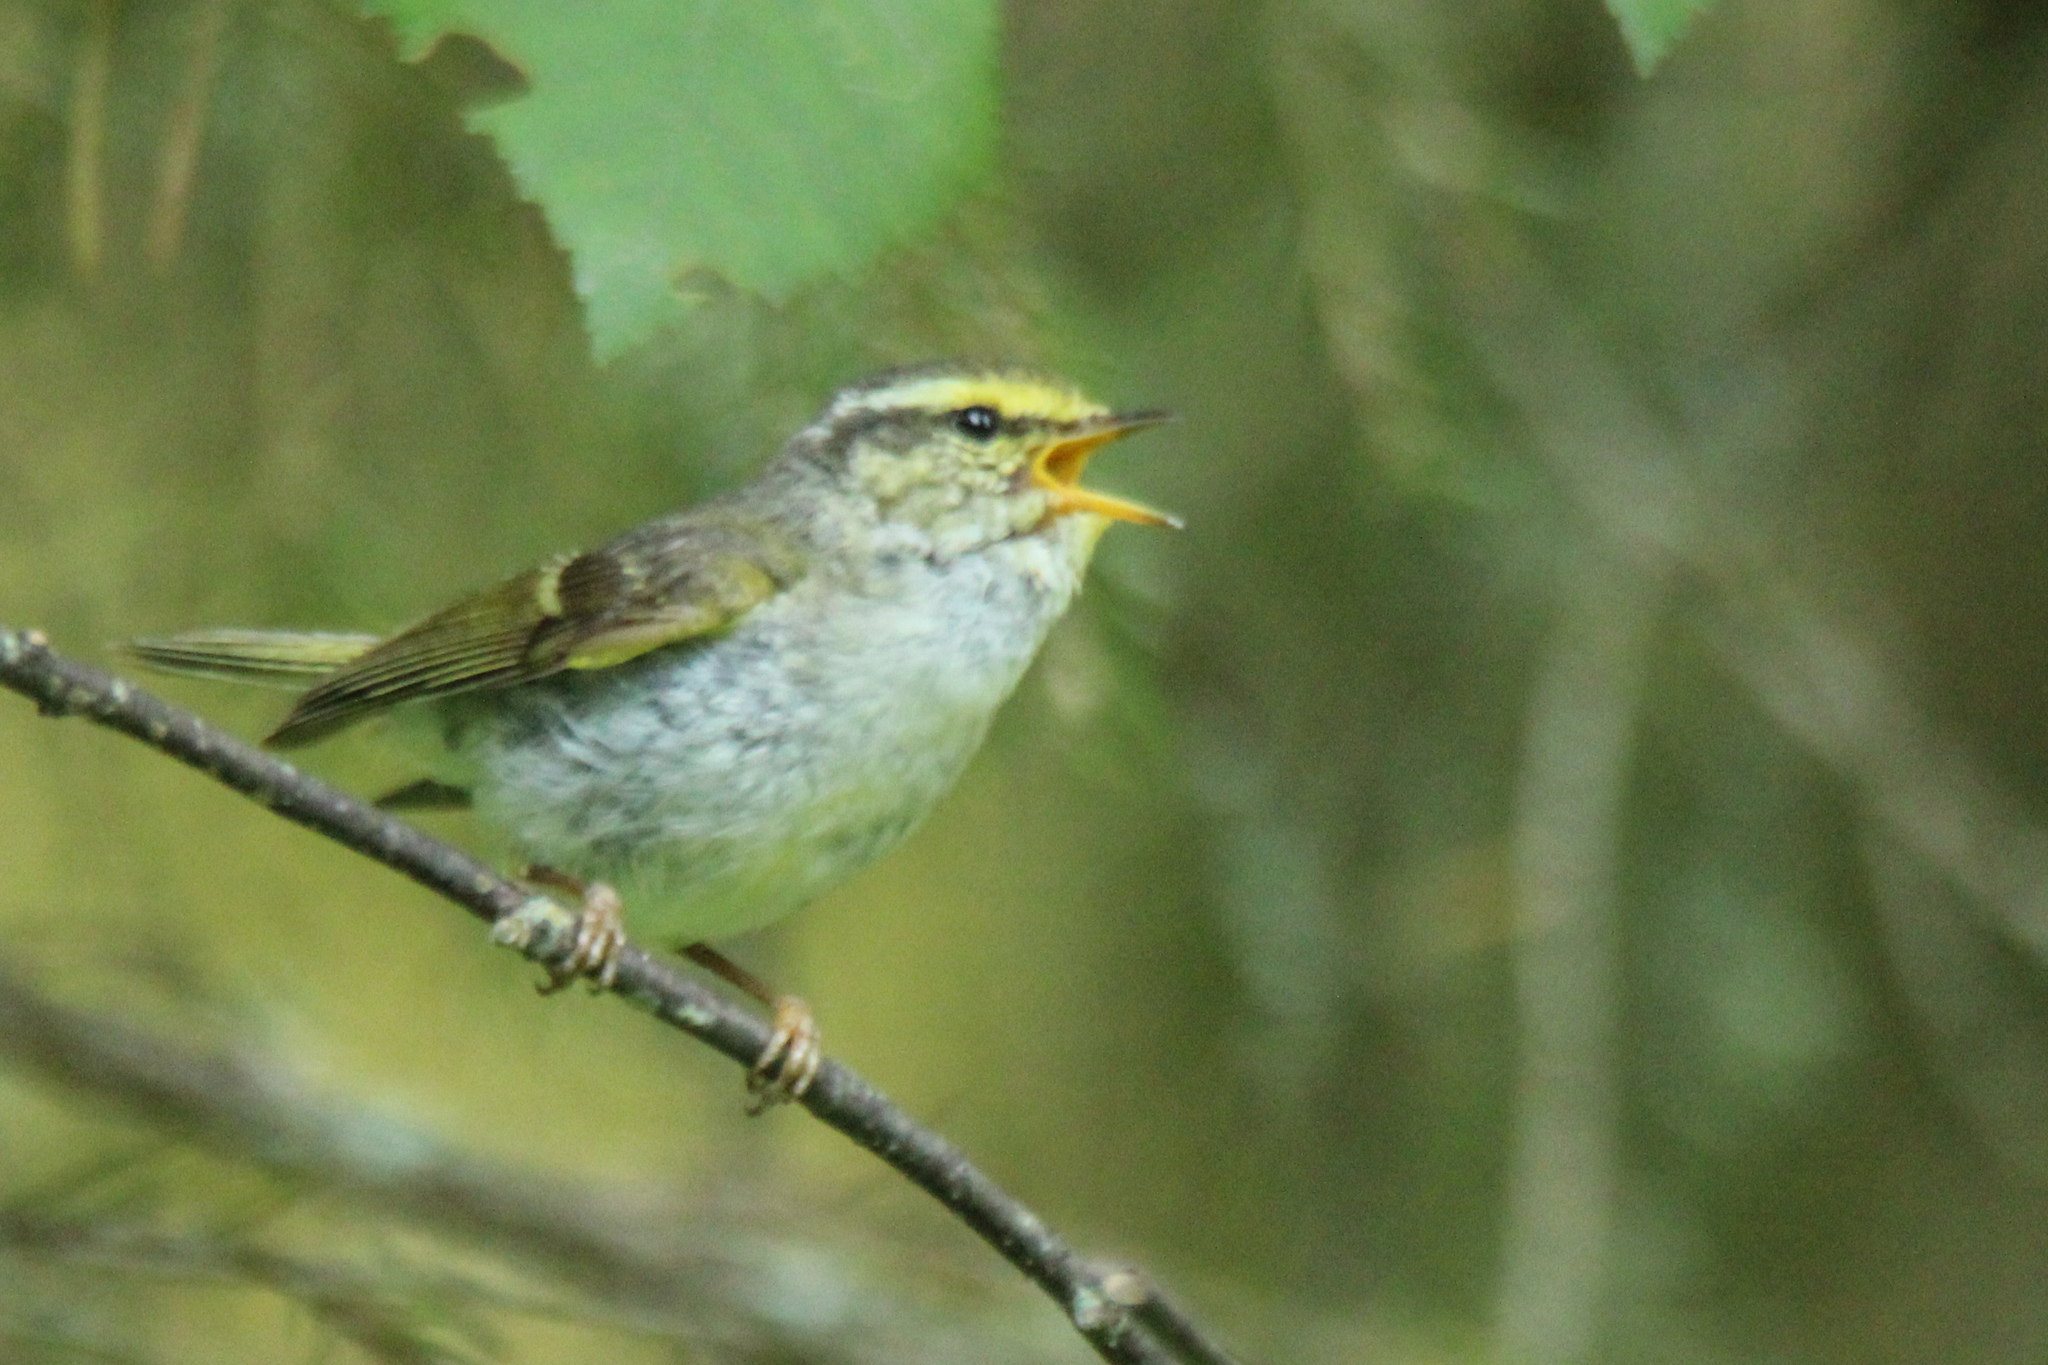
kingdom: Animalia
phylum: Chordata
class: Aves
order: Passeriformes
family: Phylloscopidae
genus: Phylloscopus
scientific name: Phylloscopus proregulus
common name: Pallas's leaf warbler
